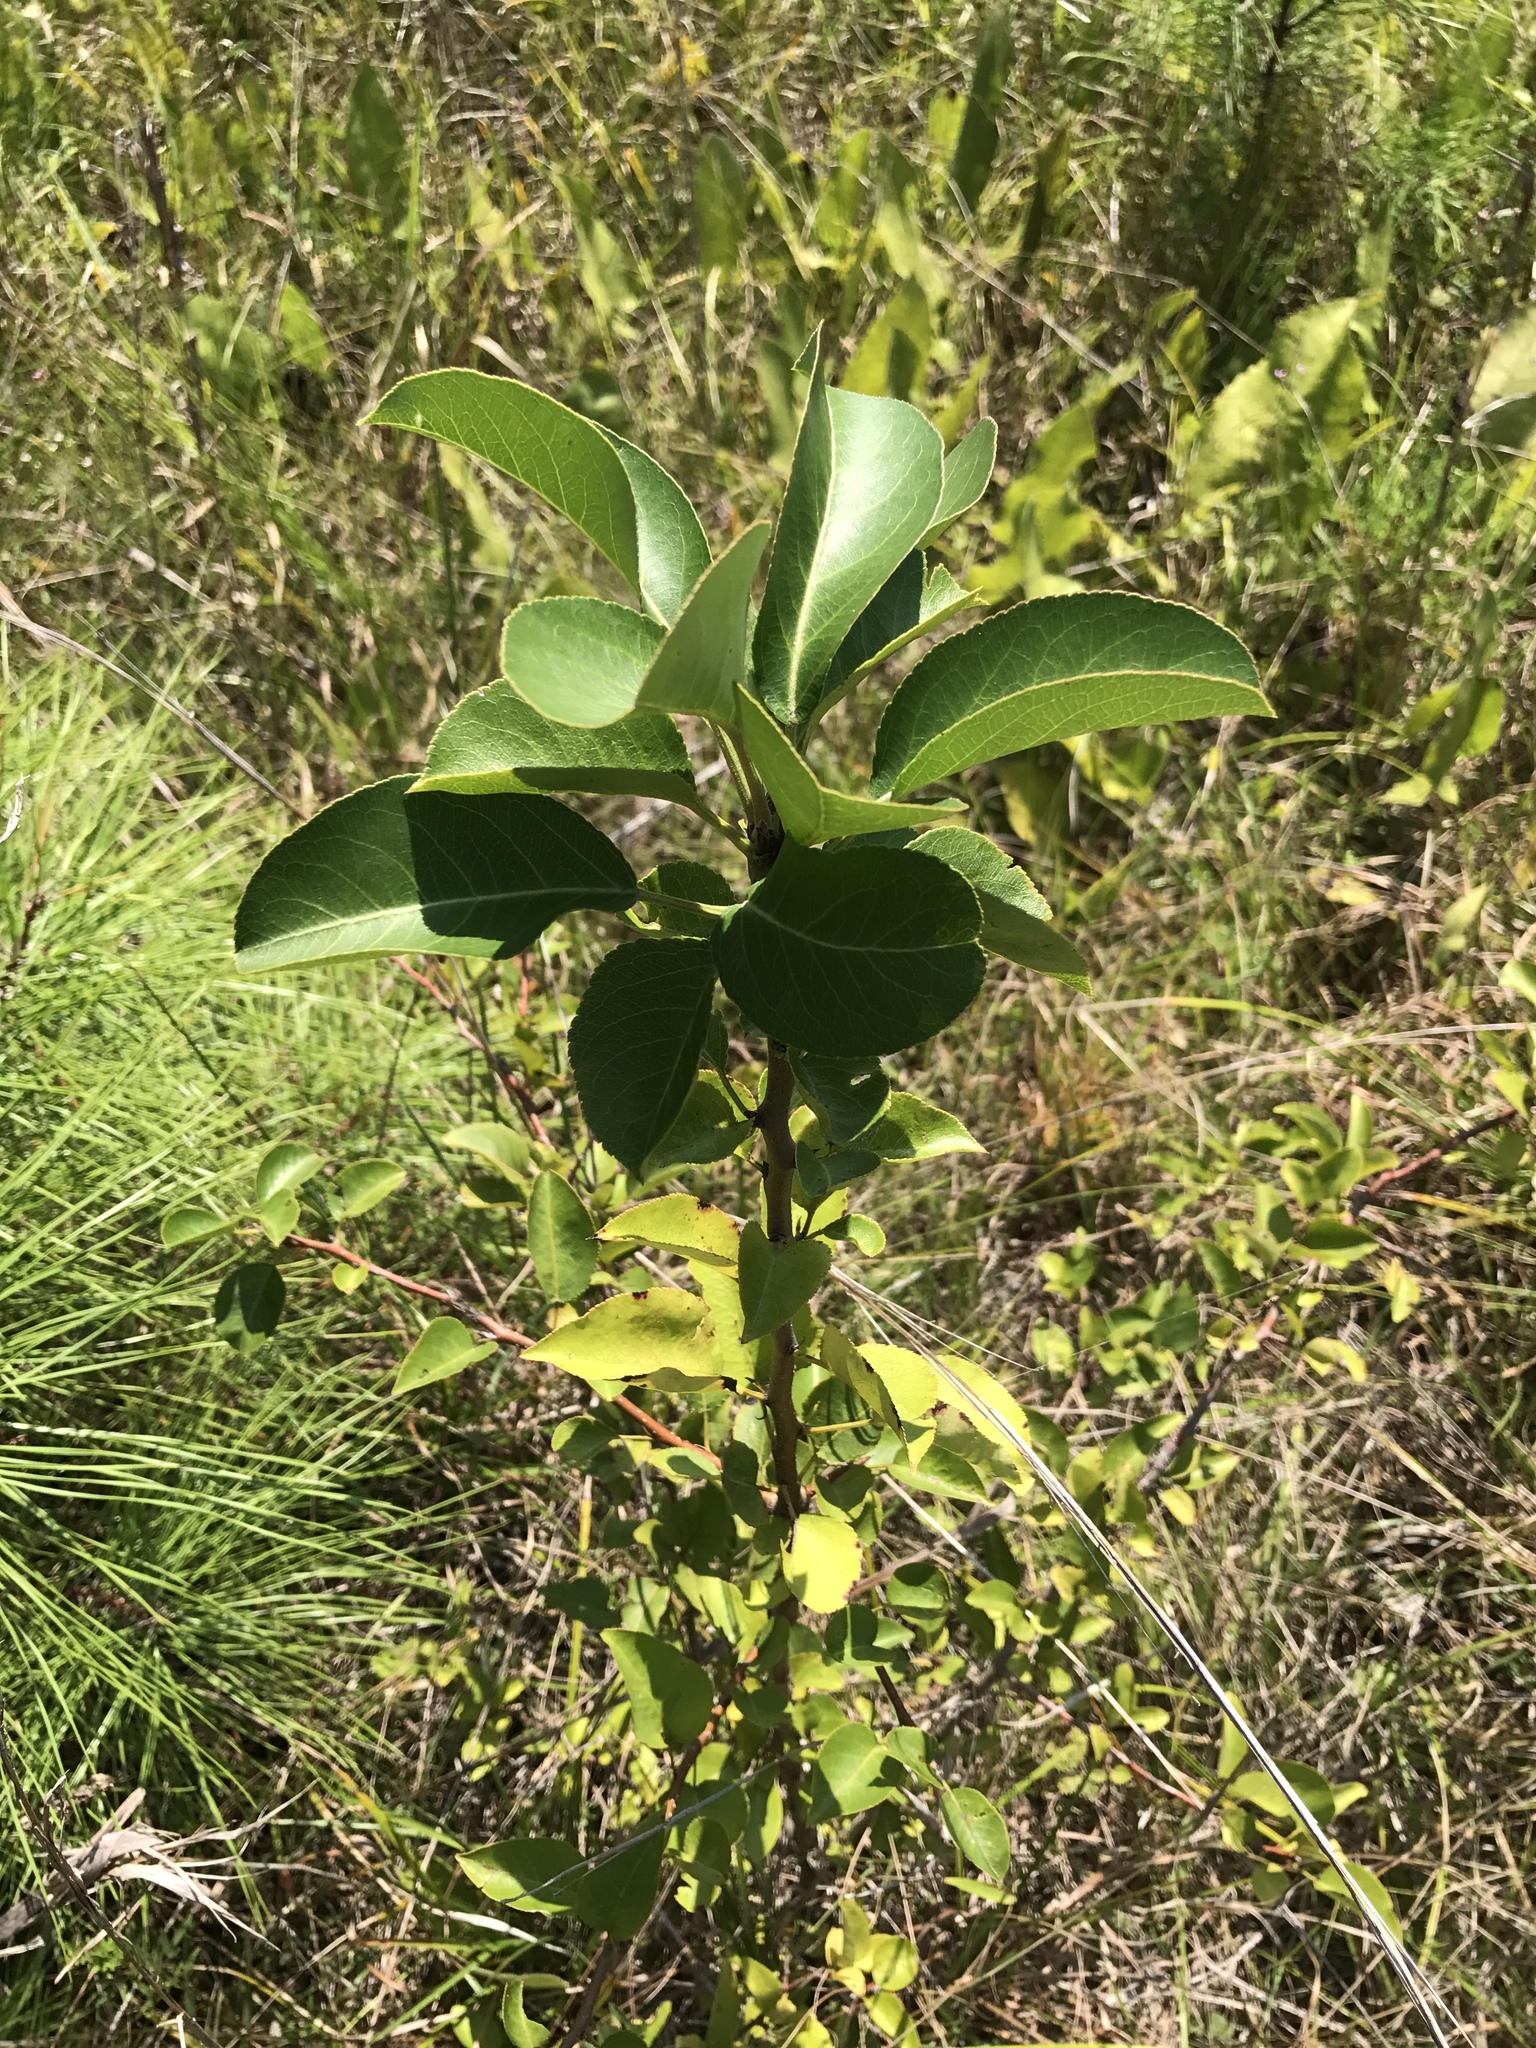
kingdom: Plantae
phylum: Tracheophyta
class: Magnoliopsida
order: Rosales
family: Rosaceae
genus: Pyrus
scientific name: Pyrus calleryana
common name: Callery pear
